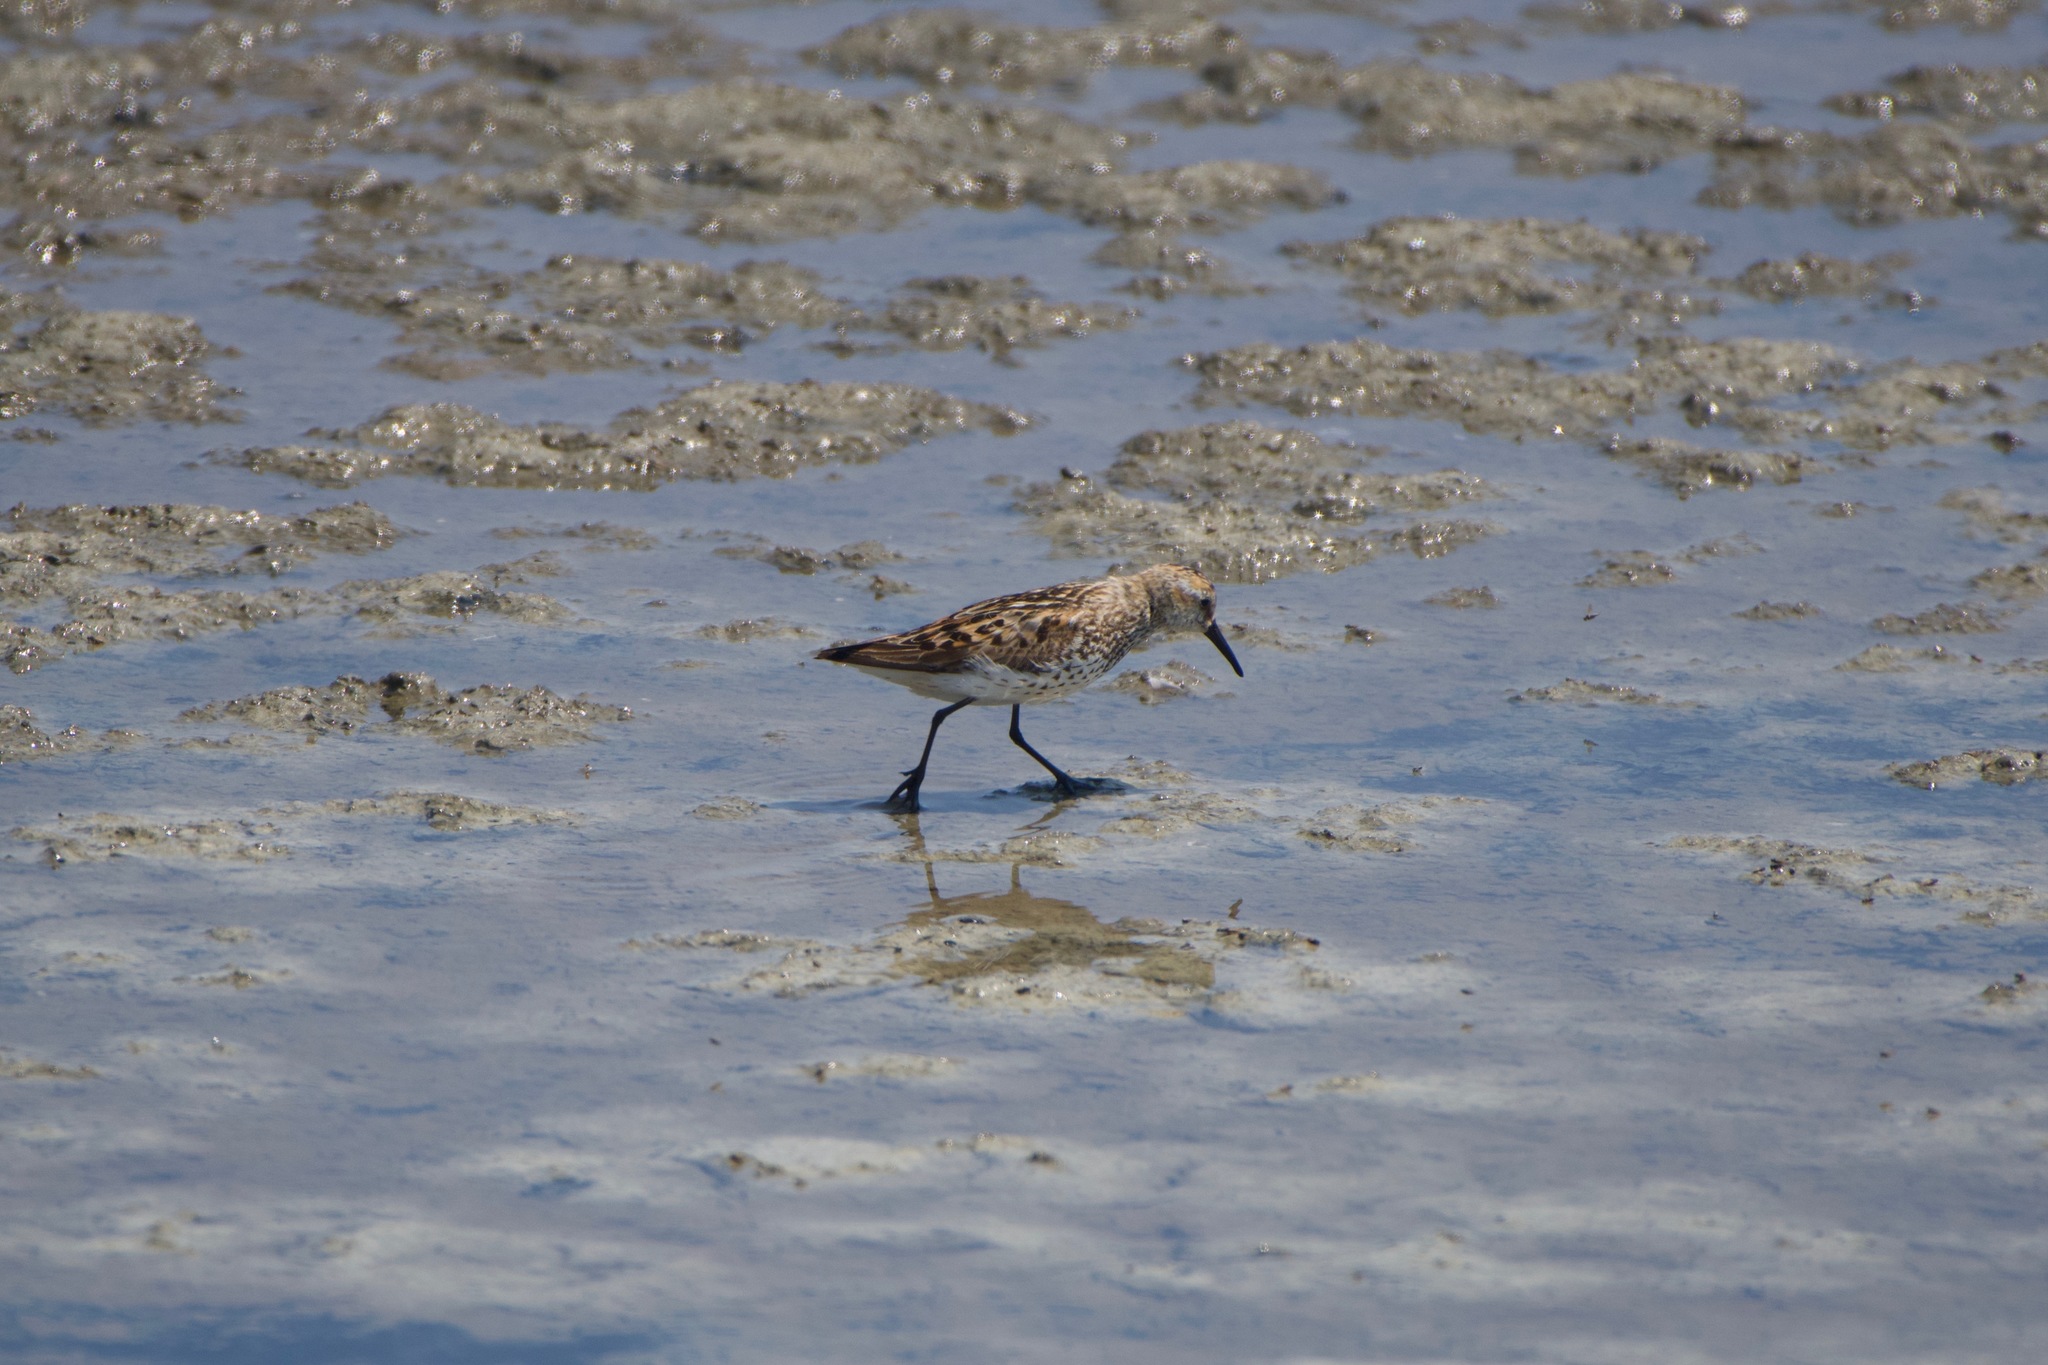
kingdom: Animalia
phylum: Chordata
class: Aves
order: Charadriiformes
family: Scolopacidae
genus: Calidris
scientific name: Calidris mauri
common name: Western sandpiper
